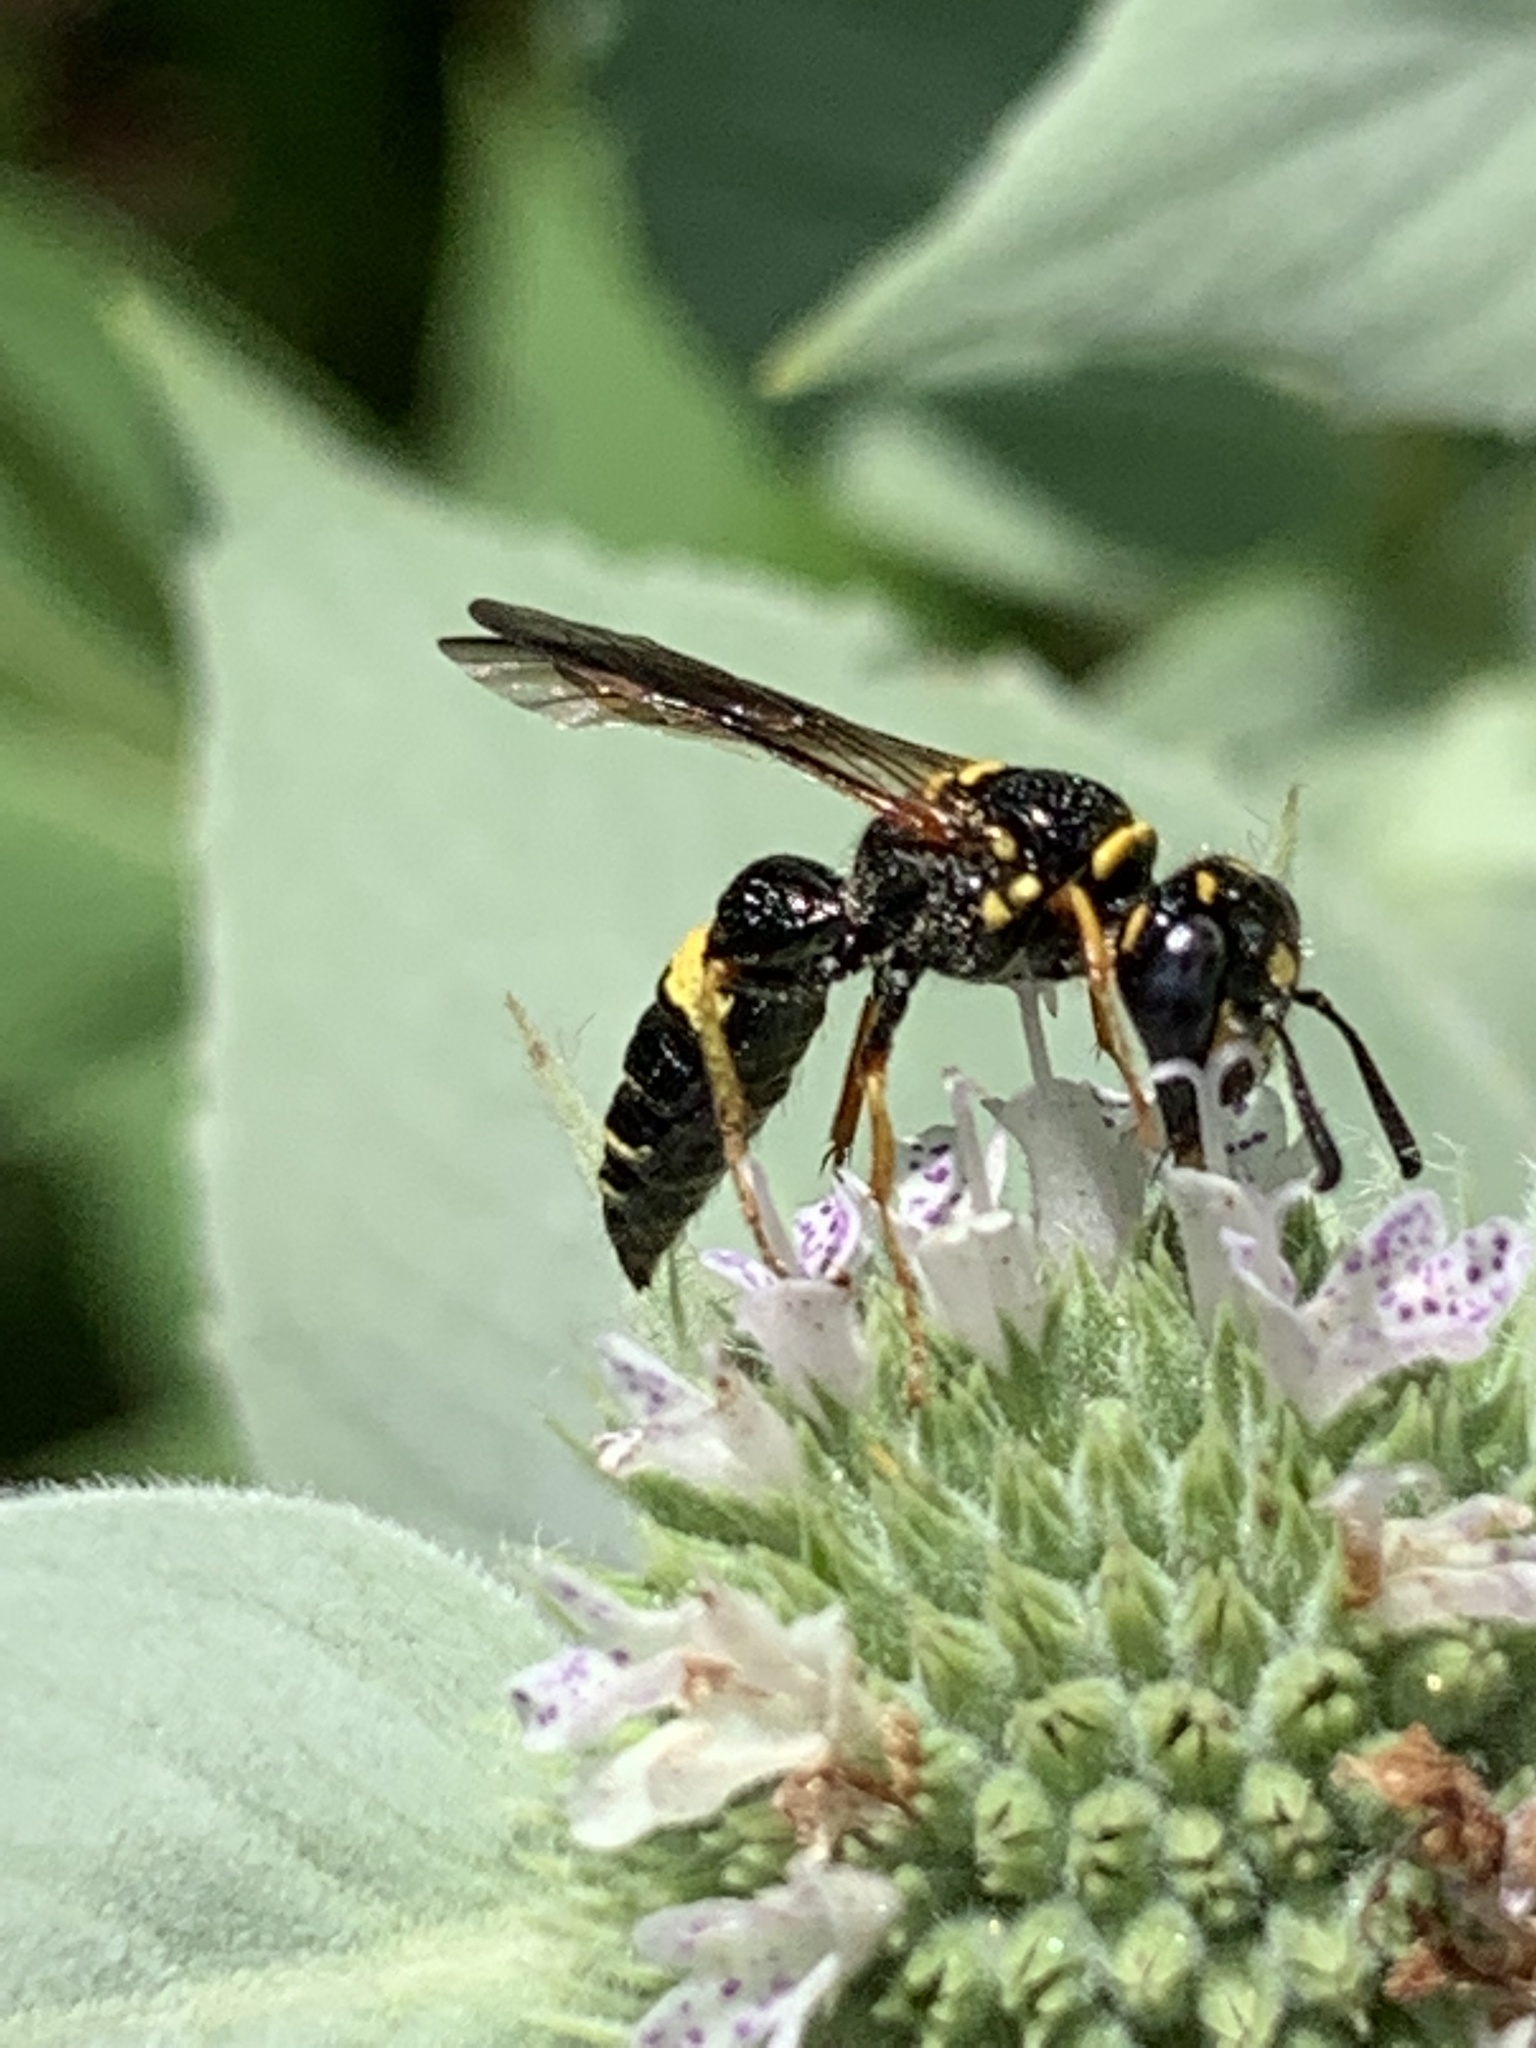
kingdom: Animalia
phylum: Arthropoda
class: Insecta
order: Hymenoptera
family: Crabronidae
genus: Philanthus
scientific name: Philanthus gibbosus
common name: Humped beewolf
